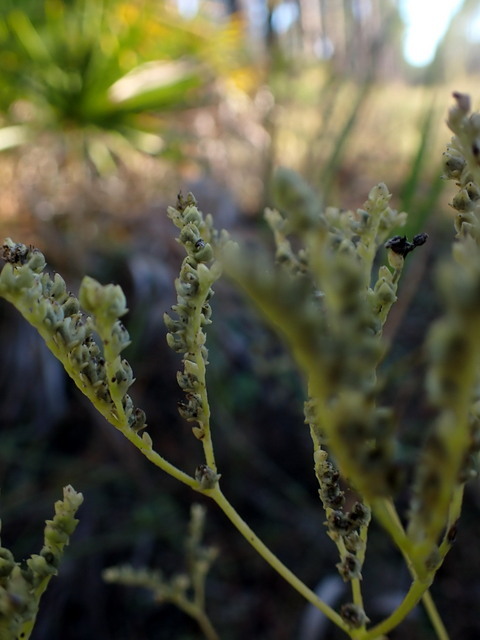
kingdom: Plantae
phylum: Tracheophyta
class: Magnoliopsida
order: Gentianales
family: Loganiaceae
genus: Mitreola
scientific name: Mitreola petiolata
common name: Lax hornpod
